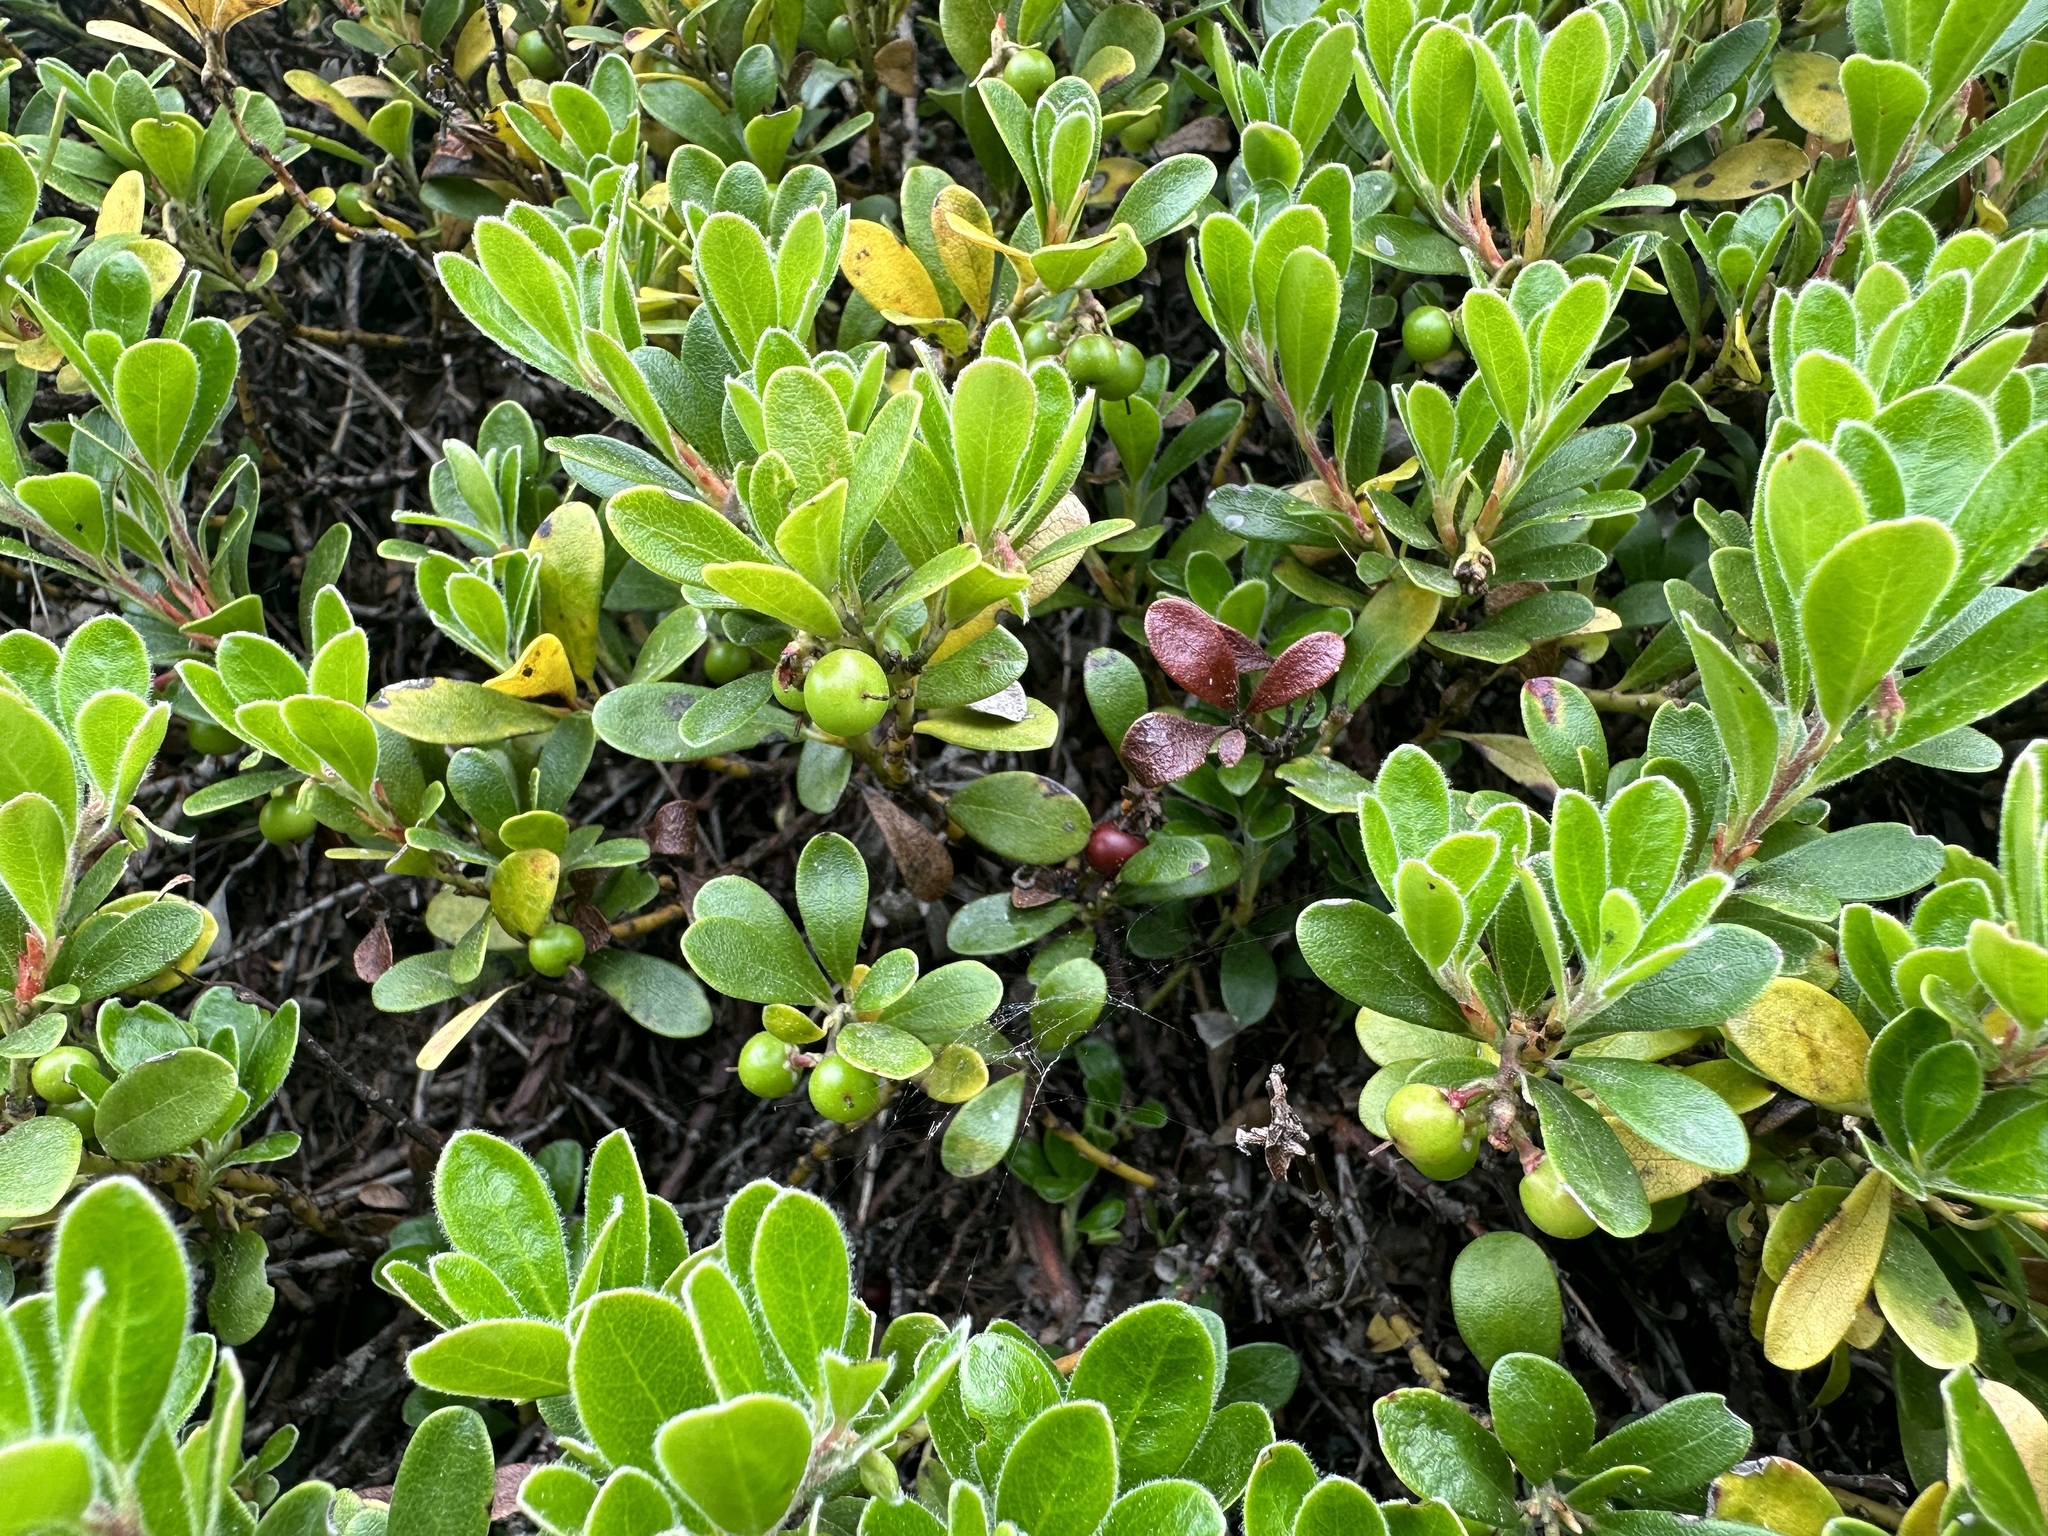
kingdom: Plantae
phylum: Tracheophyta
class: Magnoliopsida
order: Ericales
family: Ericaceae
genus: Arctostaphylos
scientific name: Arctostaphylos uva-ursi
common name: Bearberry
